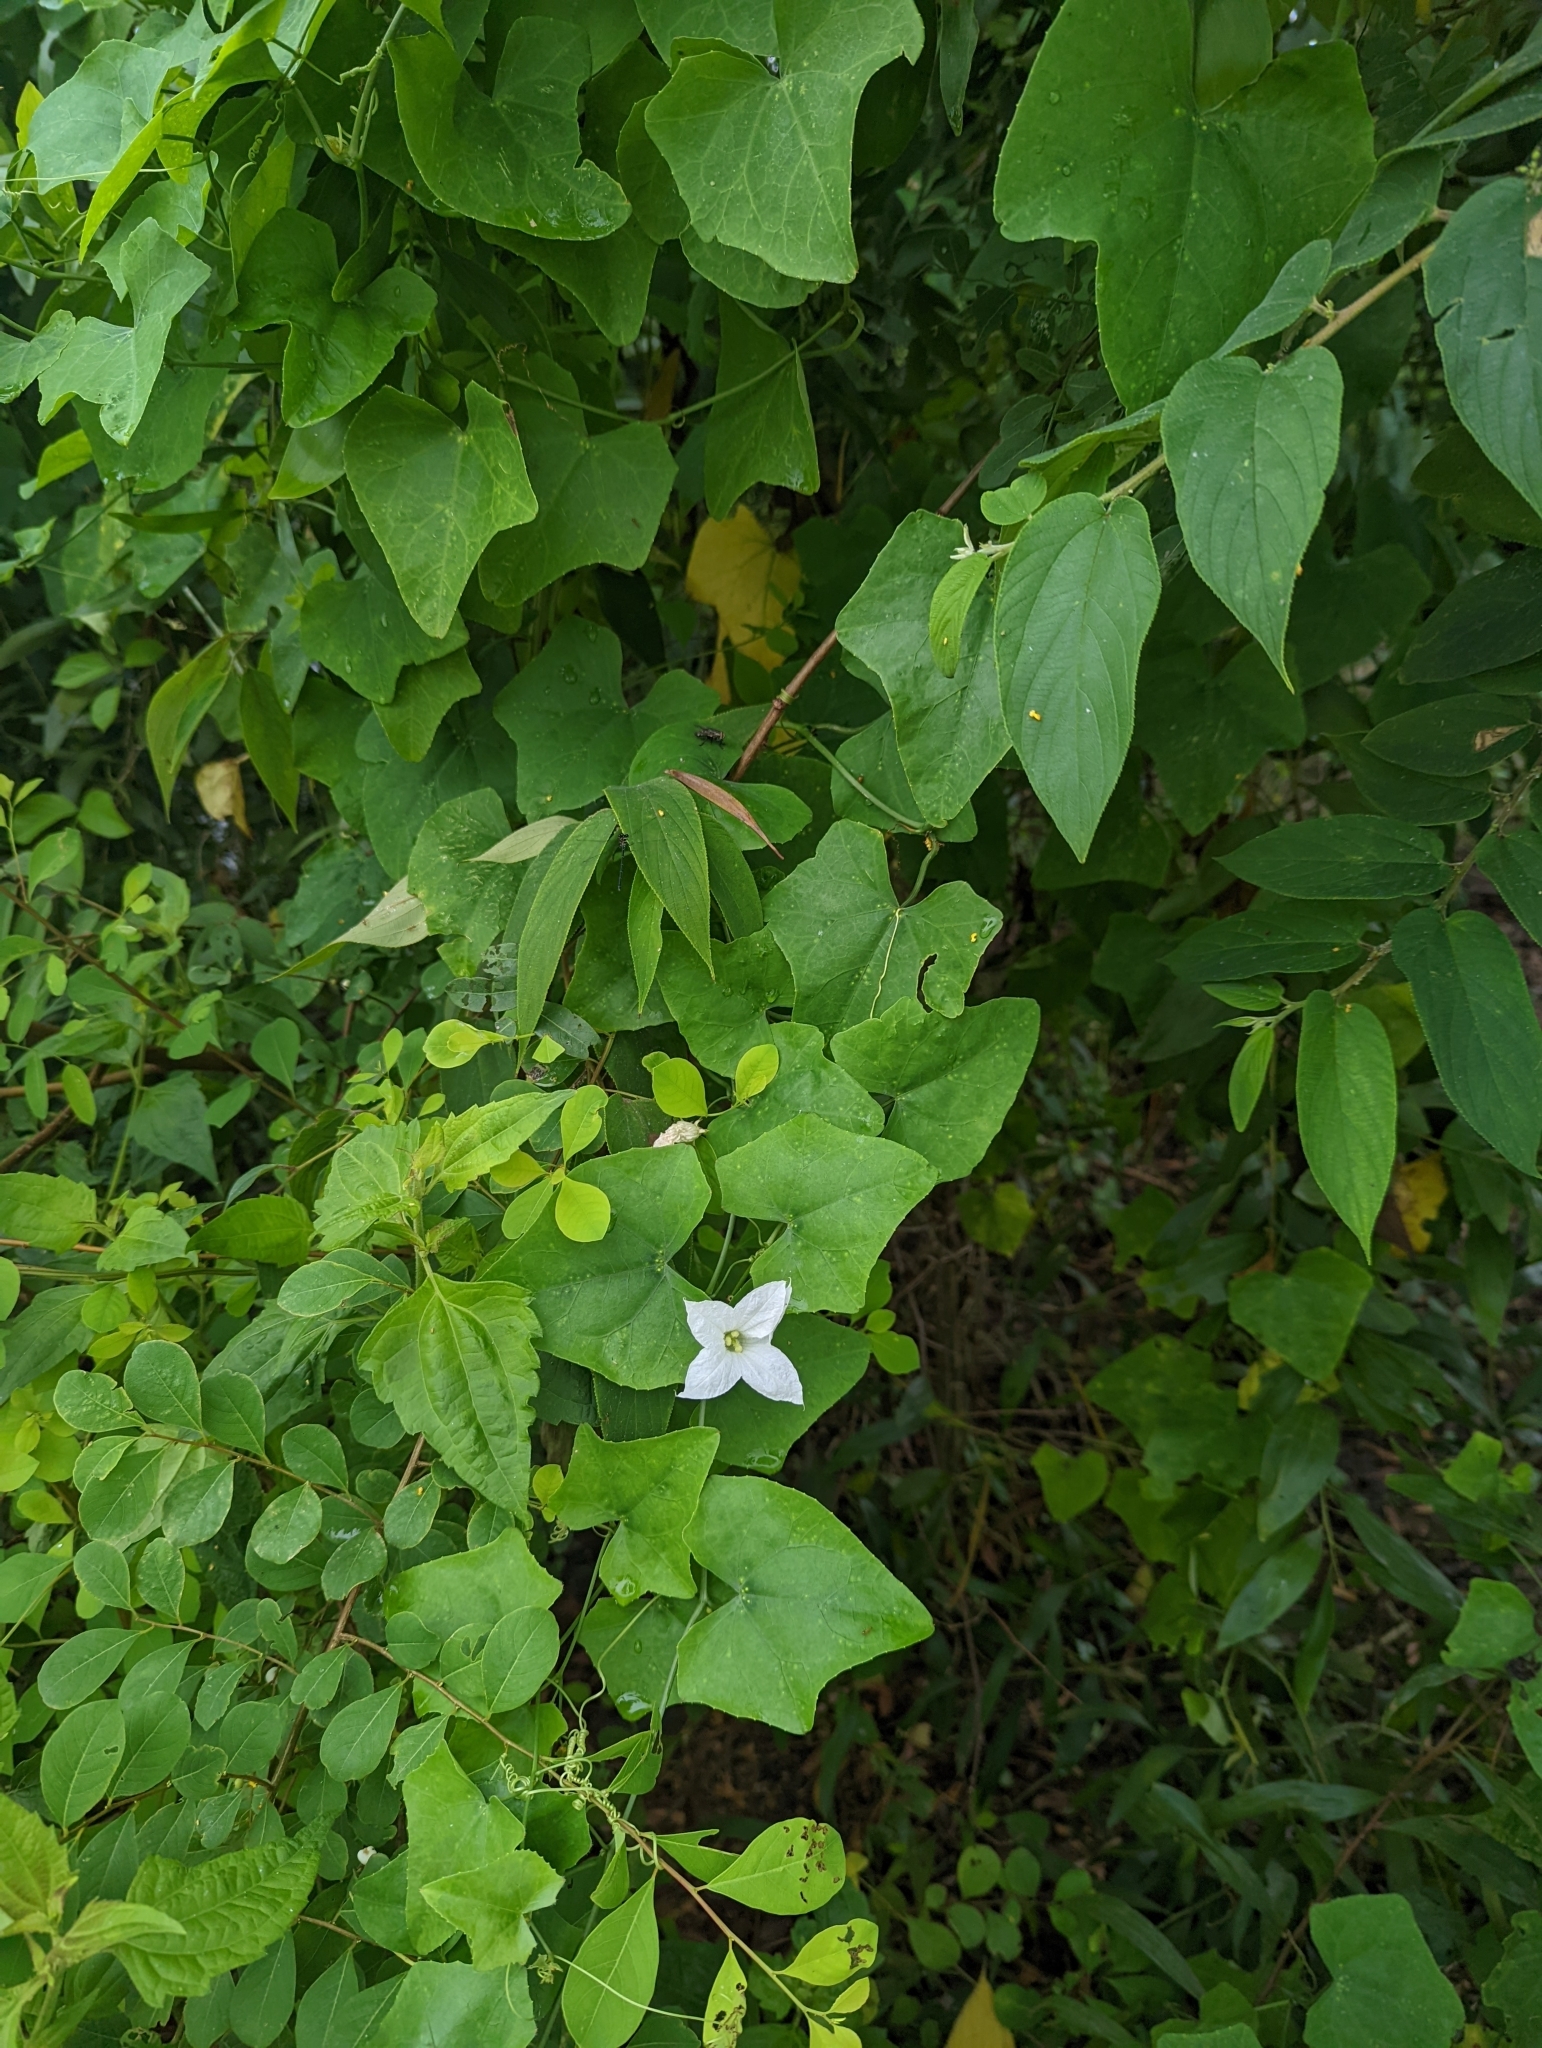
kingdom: Plantae
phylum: Tracheophyta
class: Magnoliopsida
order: Cucurbitales
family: Cucurbitaceae
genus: Coccinia
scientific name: Coccinia grandis
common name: Ivy gourd
